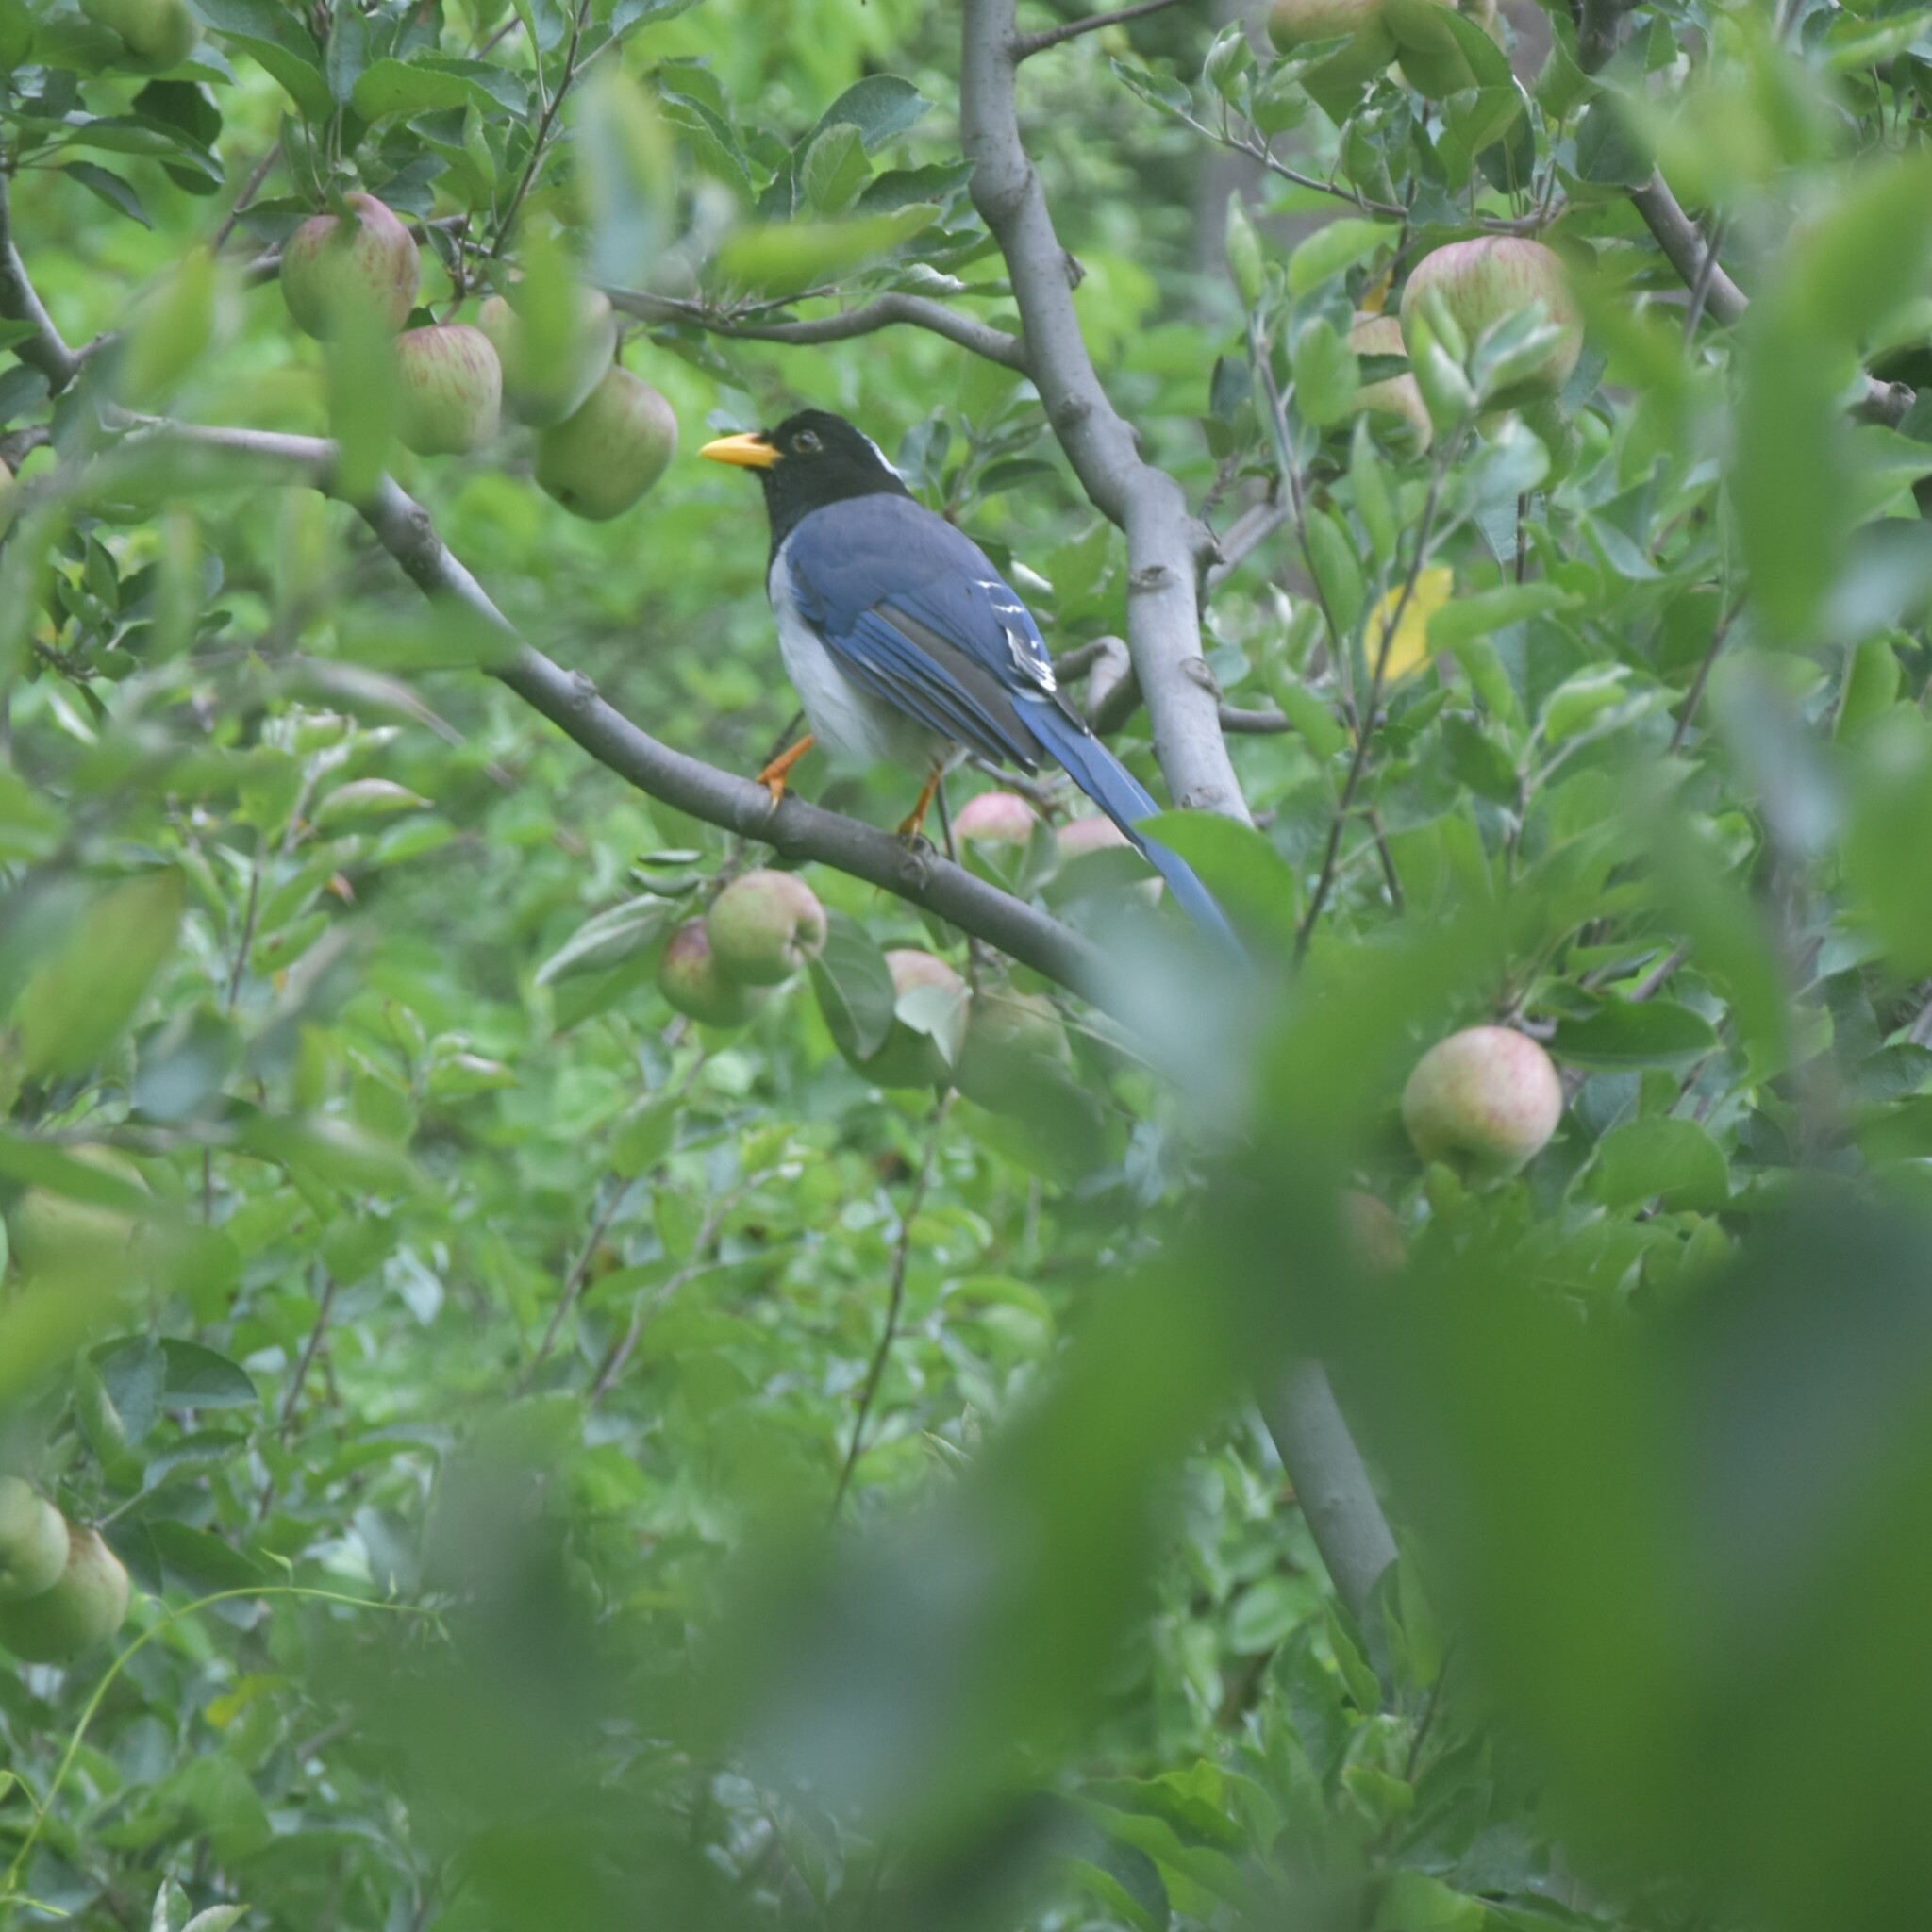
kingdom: Animalia
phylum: Chordata
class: Aves
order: Passeriformes
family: Corvidae
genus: Urocissa
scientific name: Urocissa flavirostris
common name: Yellow-billed blue magpie
